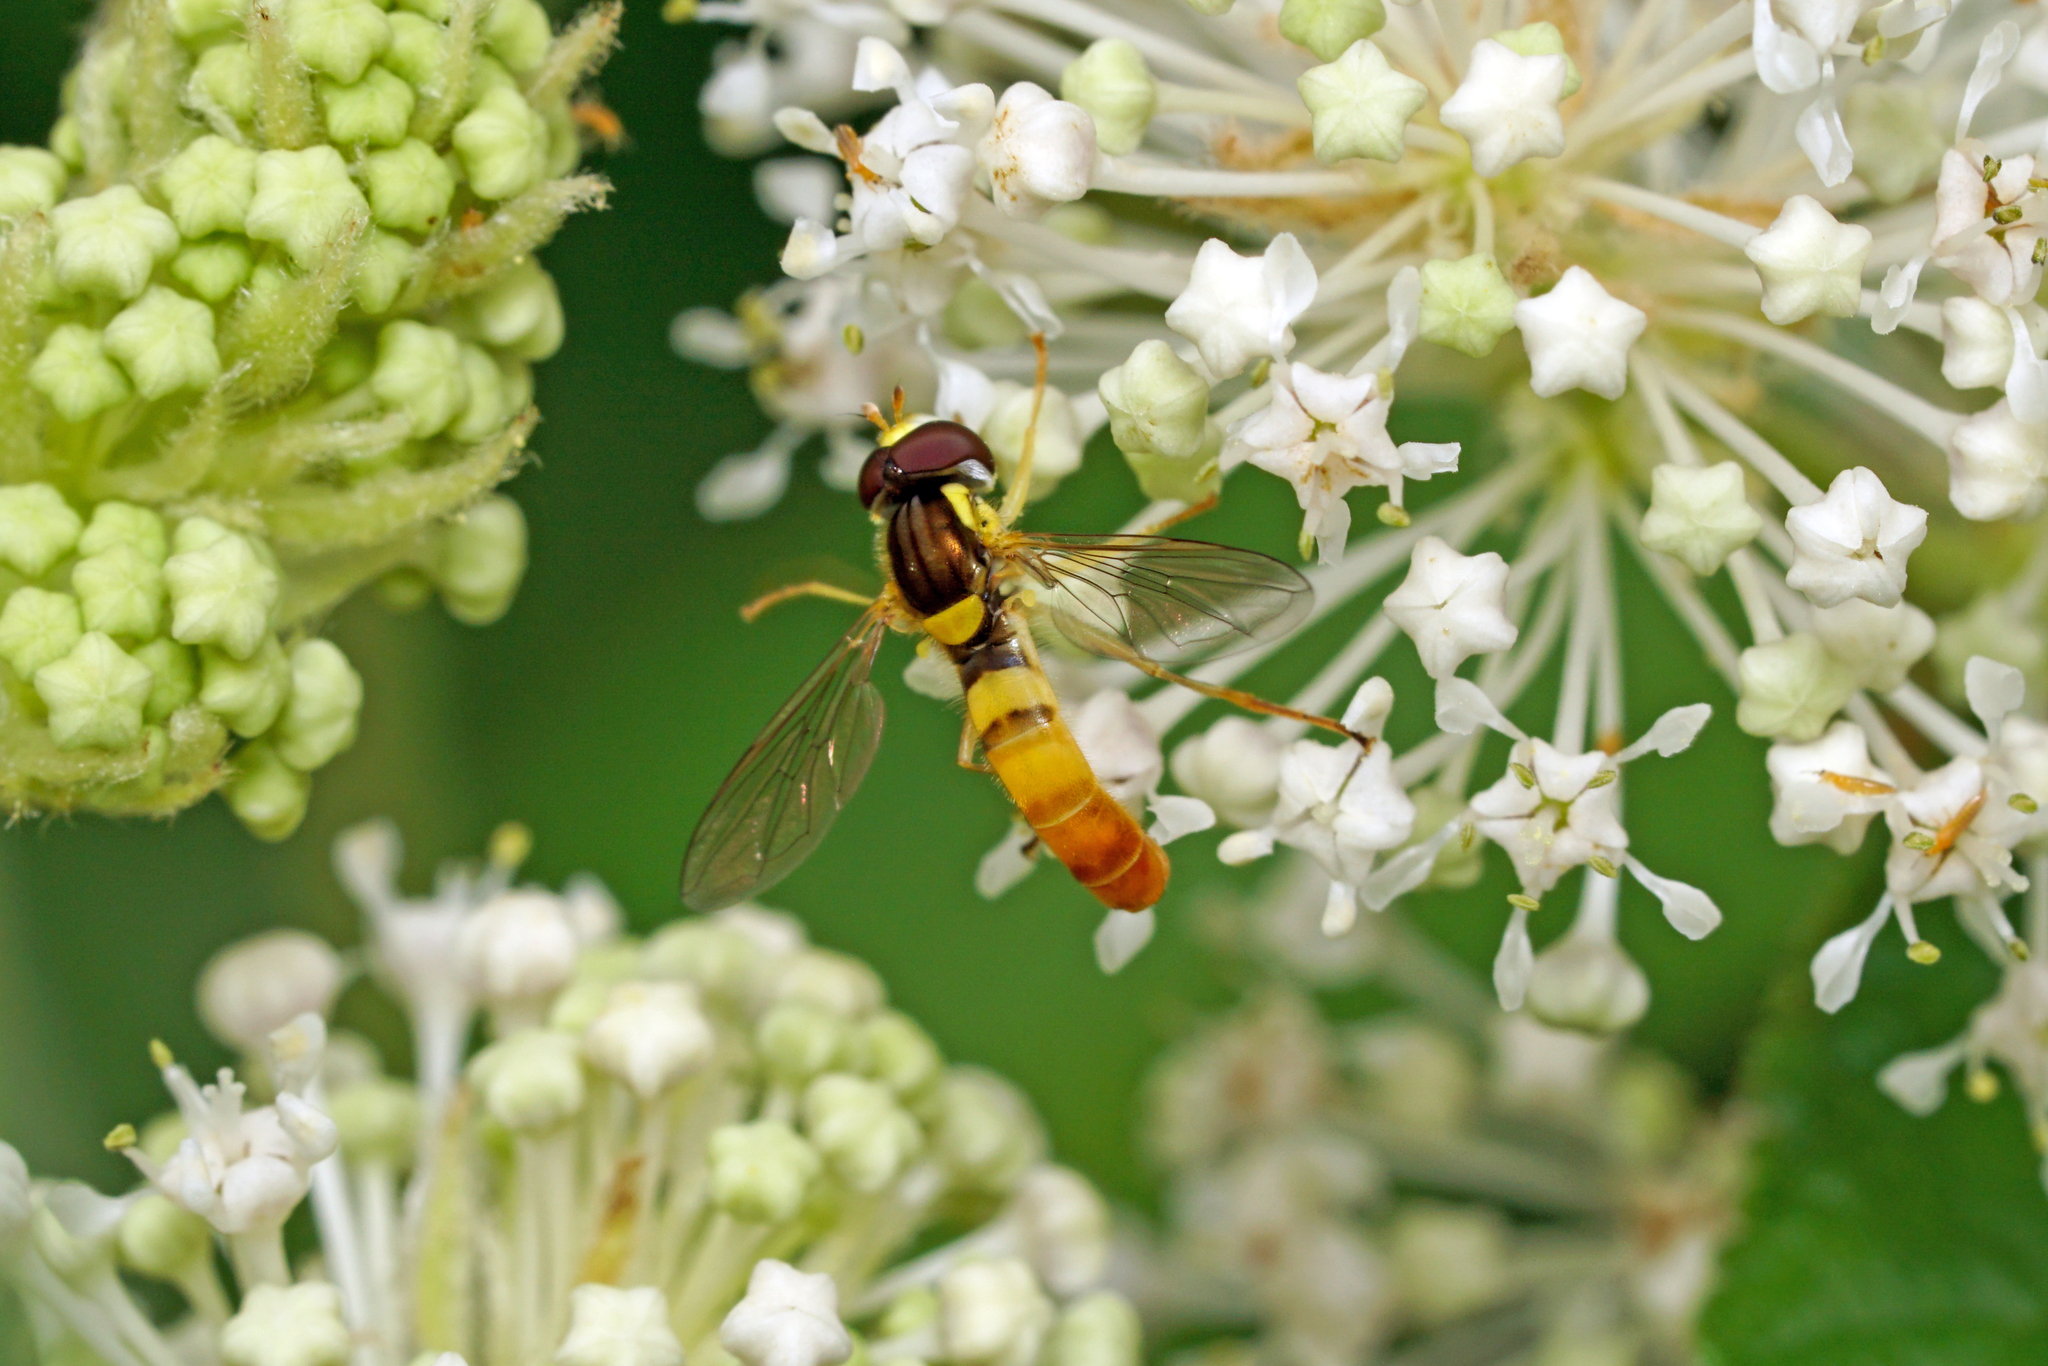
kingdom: Animalia
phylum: Arthropoda
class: Insecta
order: Diptera
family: Syrphidae
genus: Sphaerophoria
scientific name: Sphaerophoria contigua
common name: Tufted globetail
